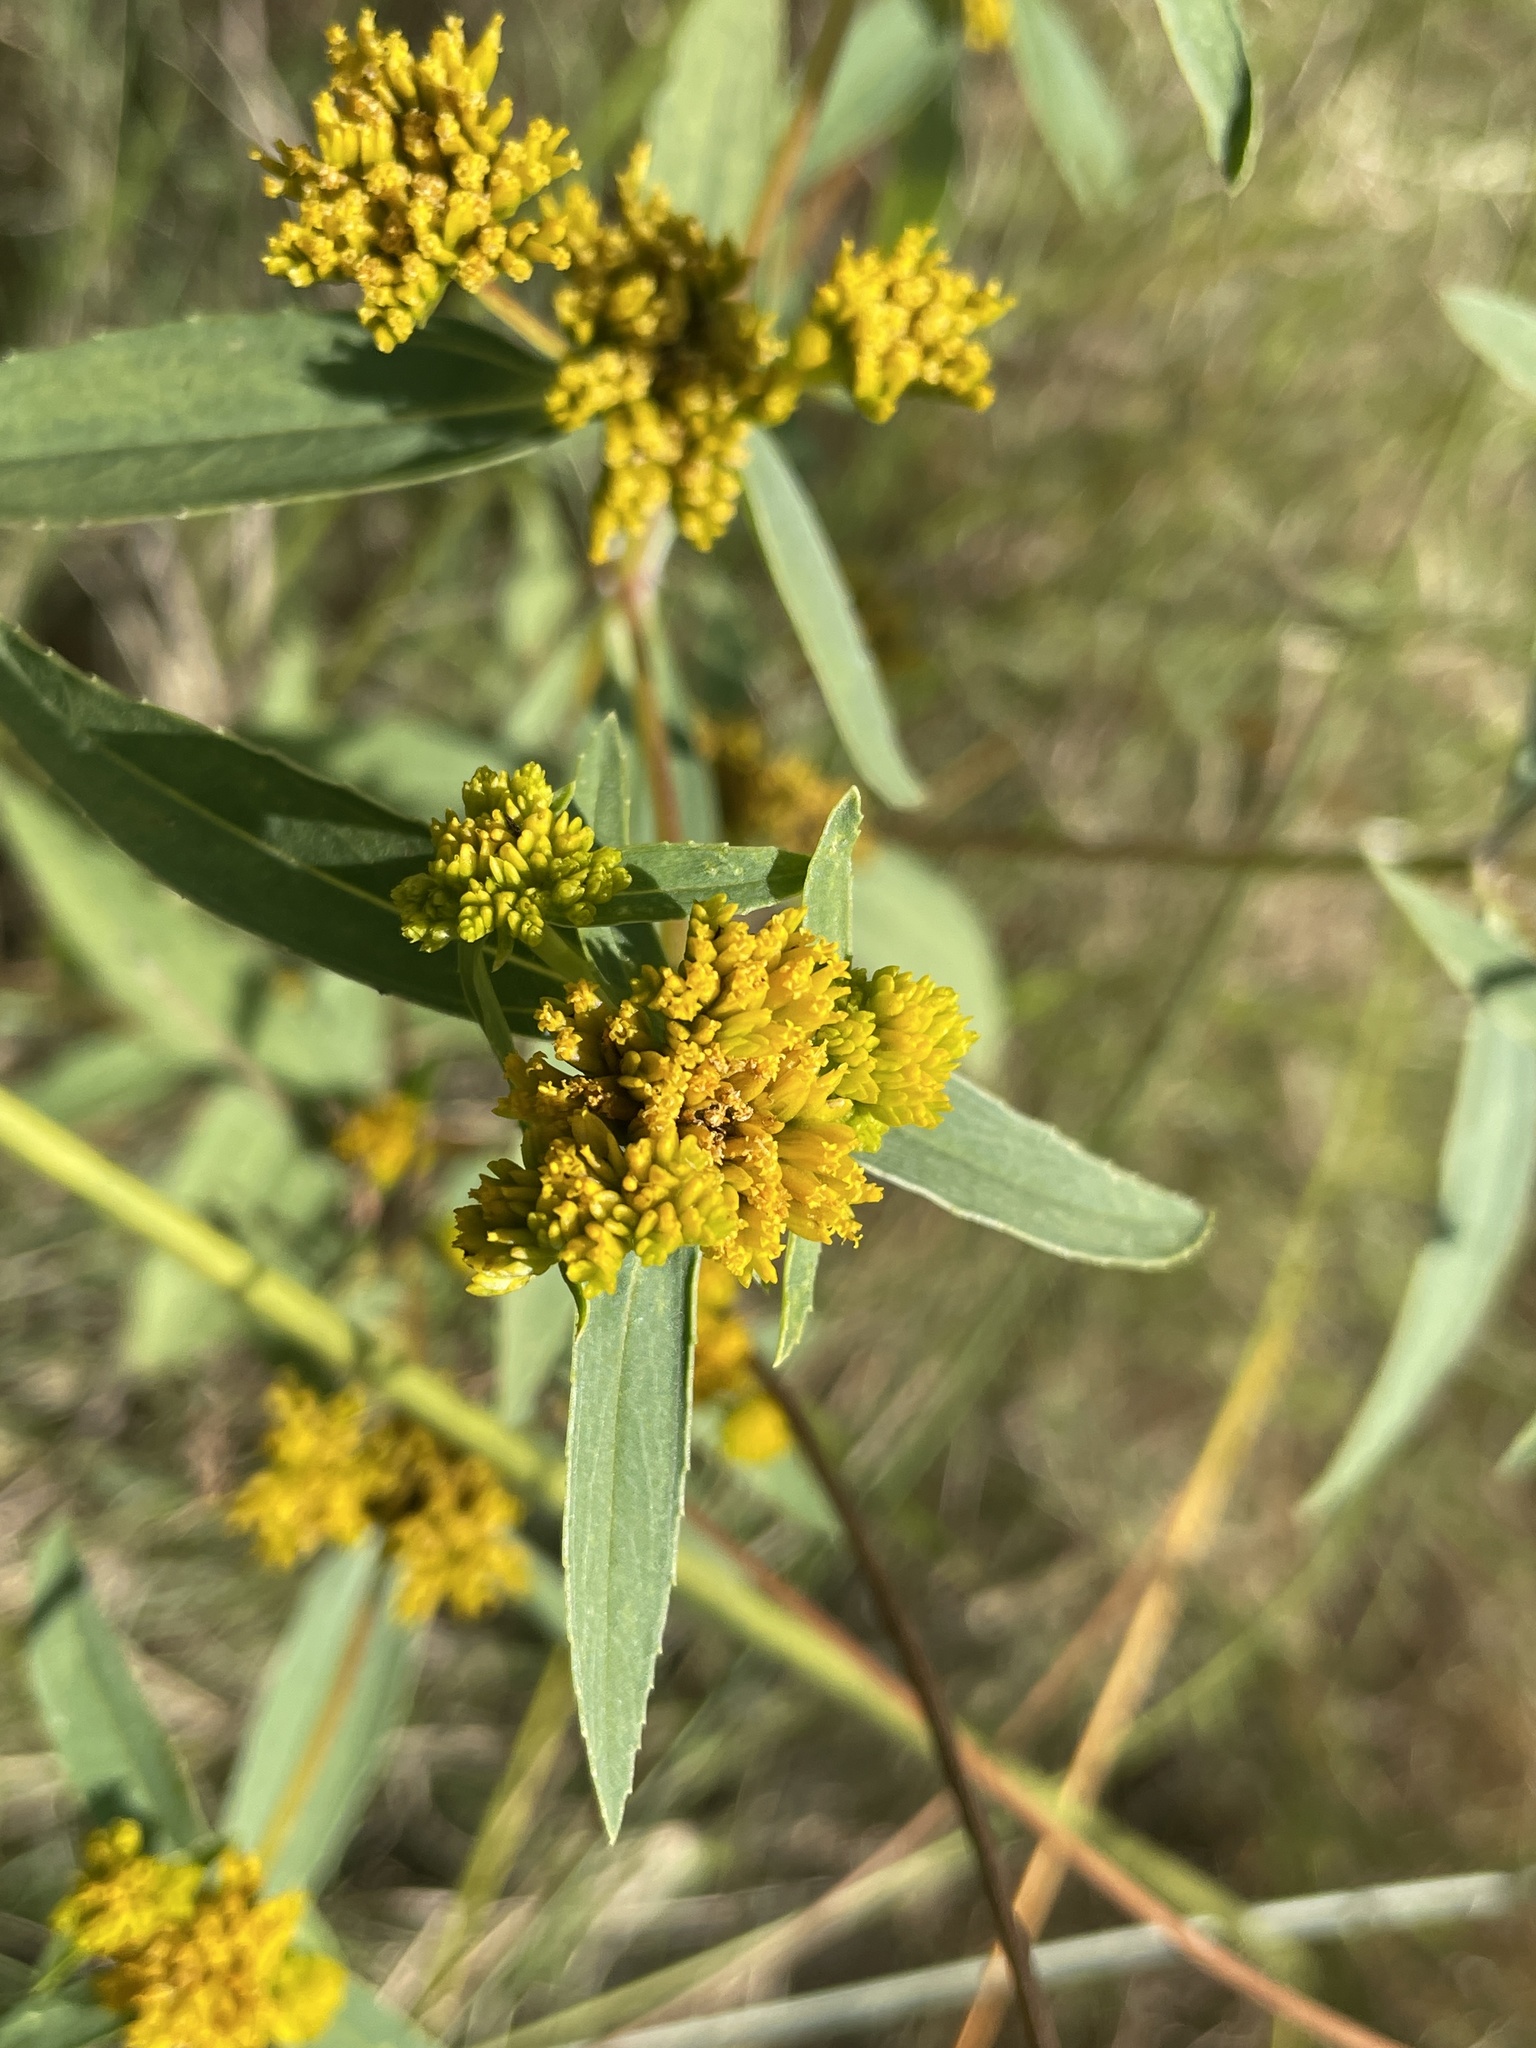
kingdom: Plantae
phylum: Tracheophyta
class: Magnoliopsida
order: Asterales
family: Asteraceae
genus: Flaveria
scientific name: Flaveria bidentis
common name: Coastal plain yellowtops
